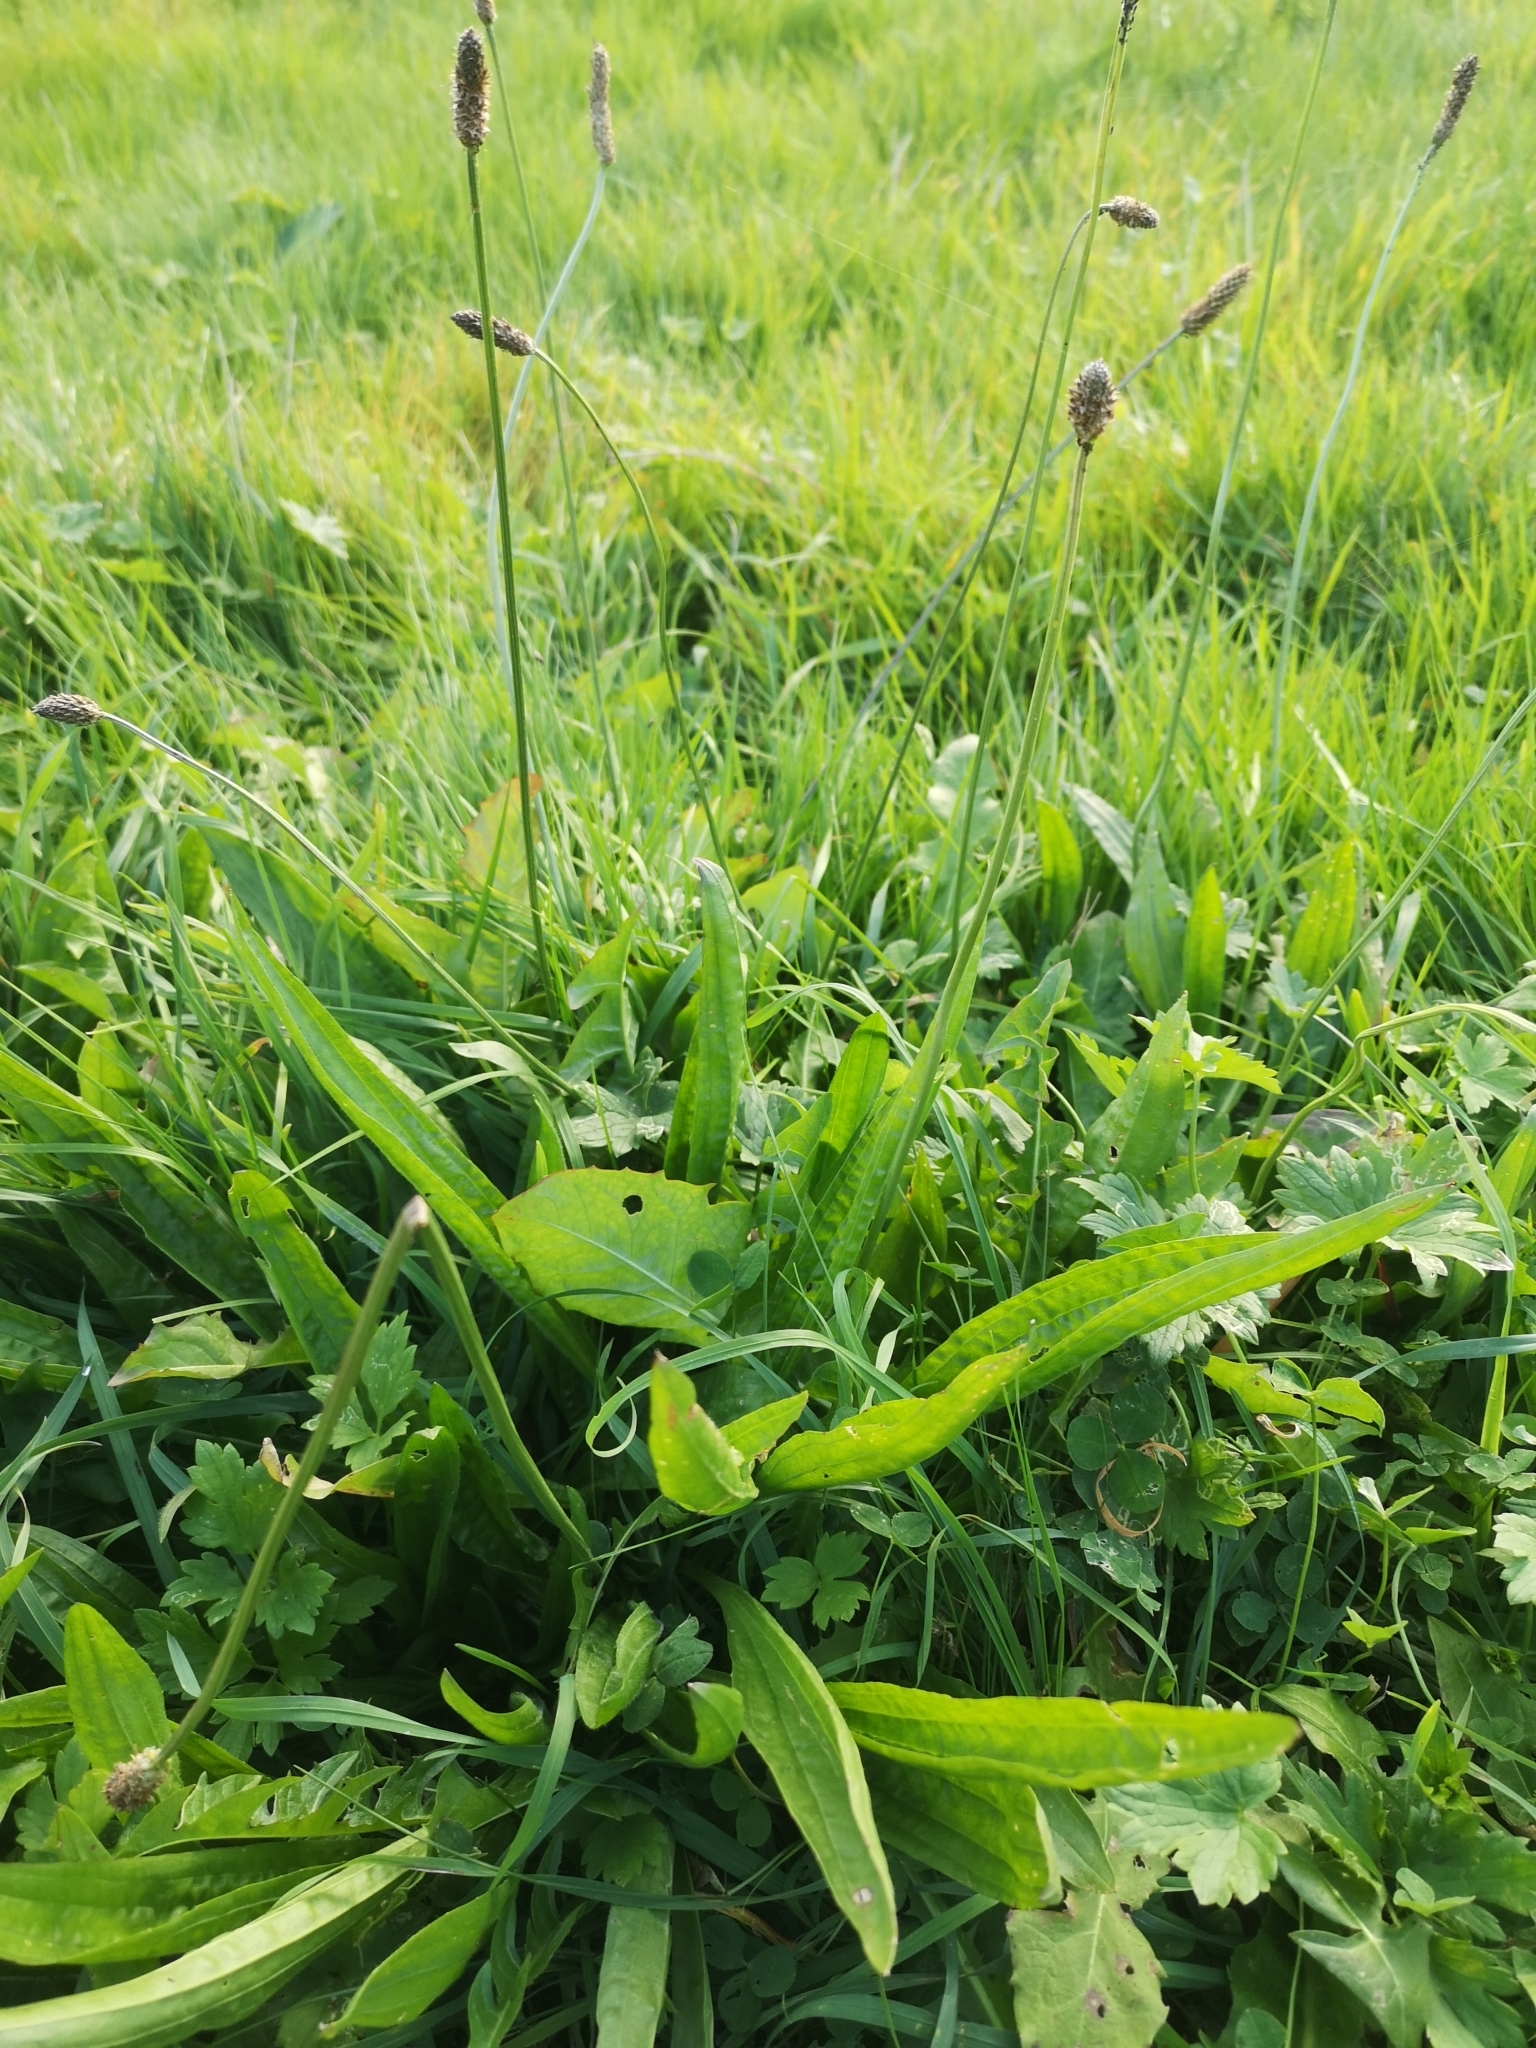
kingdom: Plantae
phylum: Tracheophyta
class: Magnoliopsida
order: Lamiales
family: Plantaginaceae
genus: Plantago
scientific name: Plantago lanceolata
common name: Ribwort plantain
